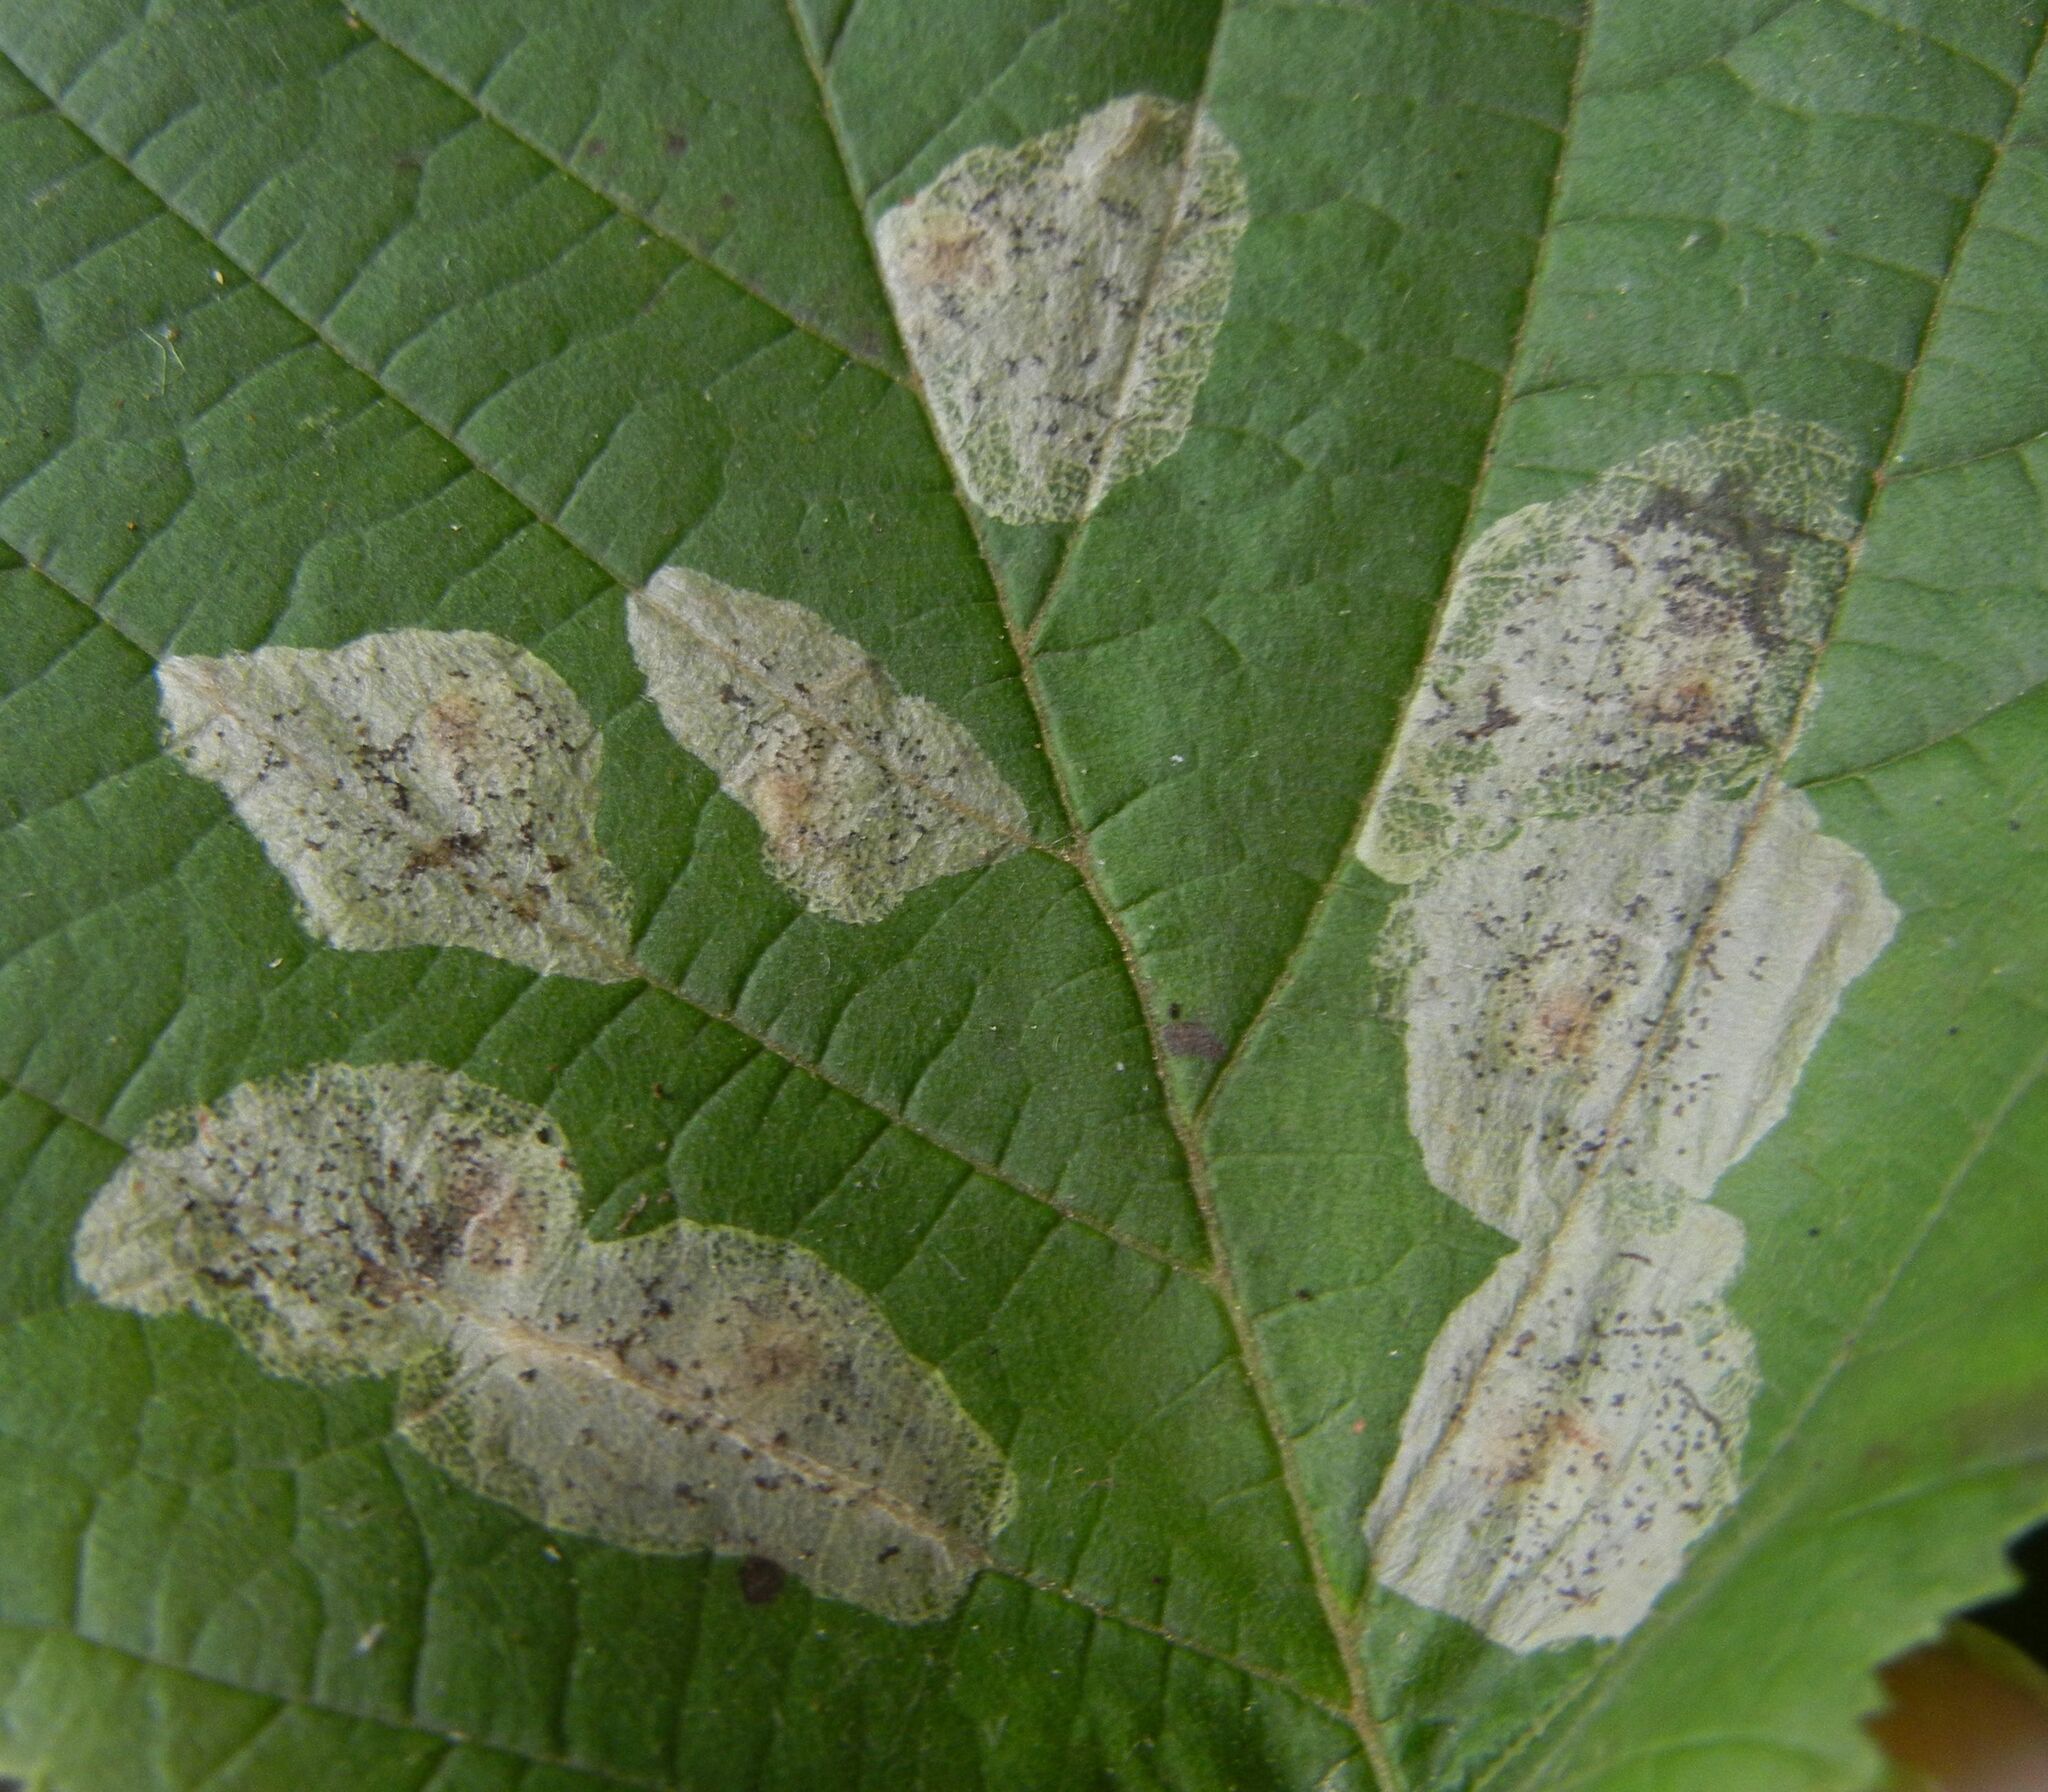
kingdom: Animalia
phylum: Arthropoda
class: Insecta
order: Lepidoptera
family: Gracillariidae
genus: Phyllonorycter
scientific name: Phyllonorycter coryli
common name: Nut-leaf blister moth
